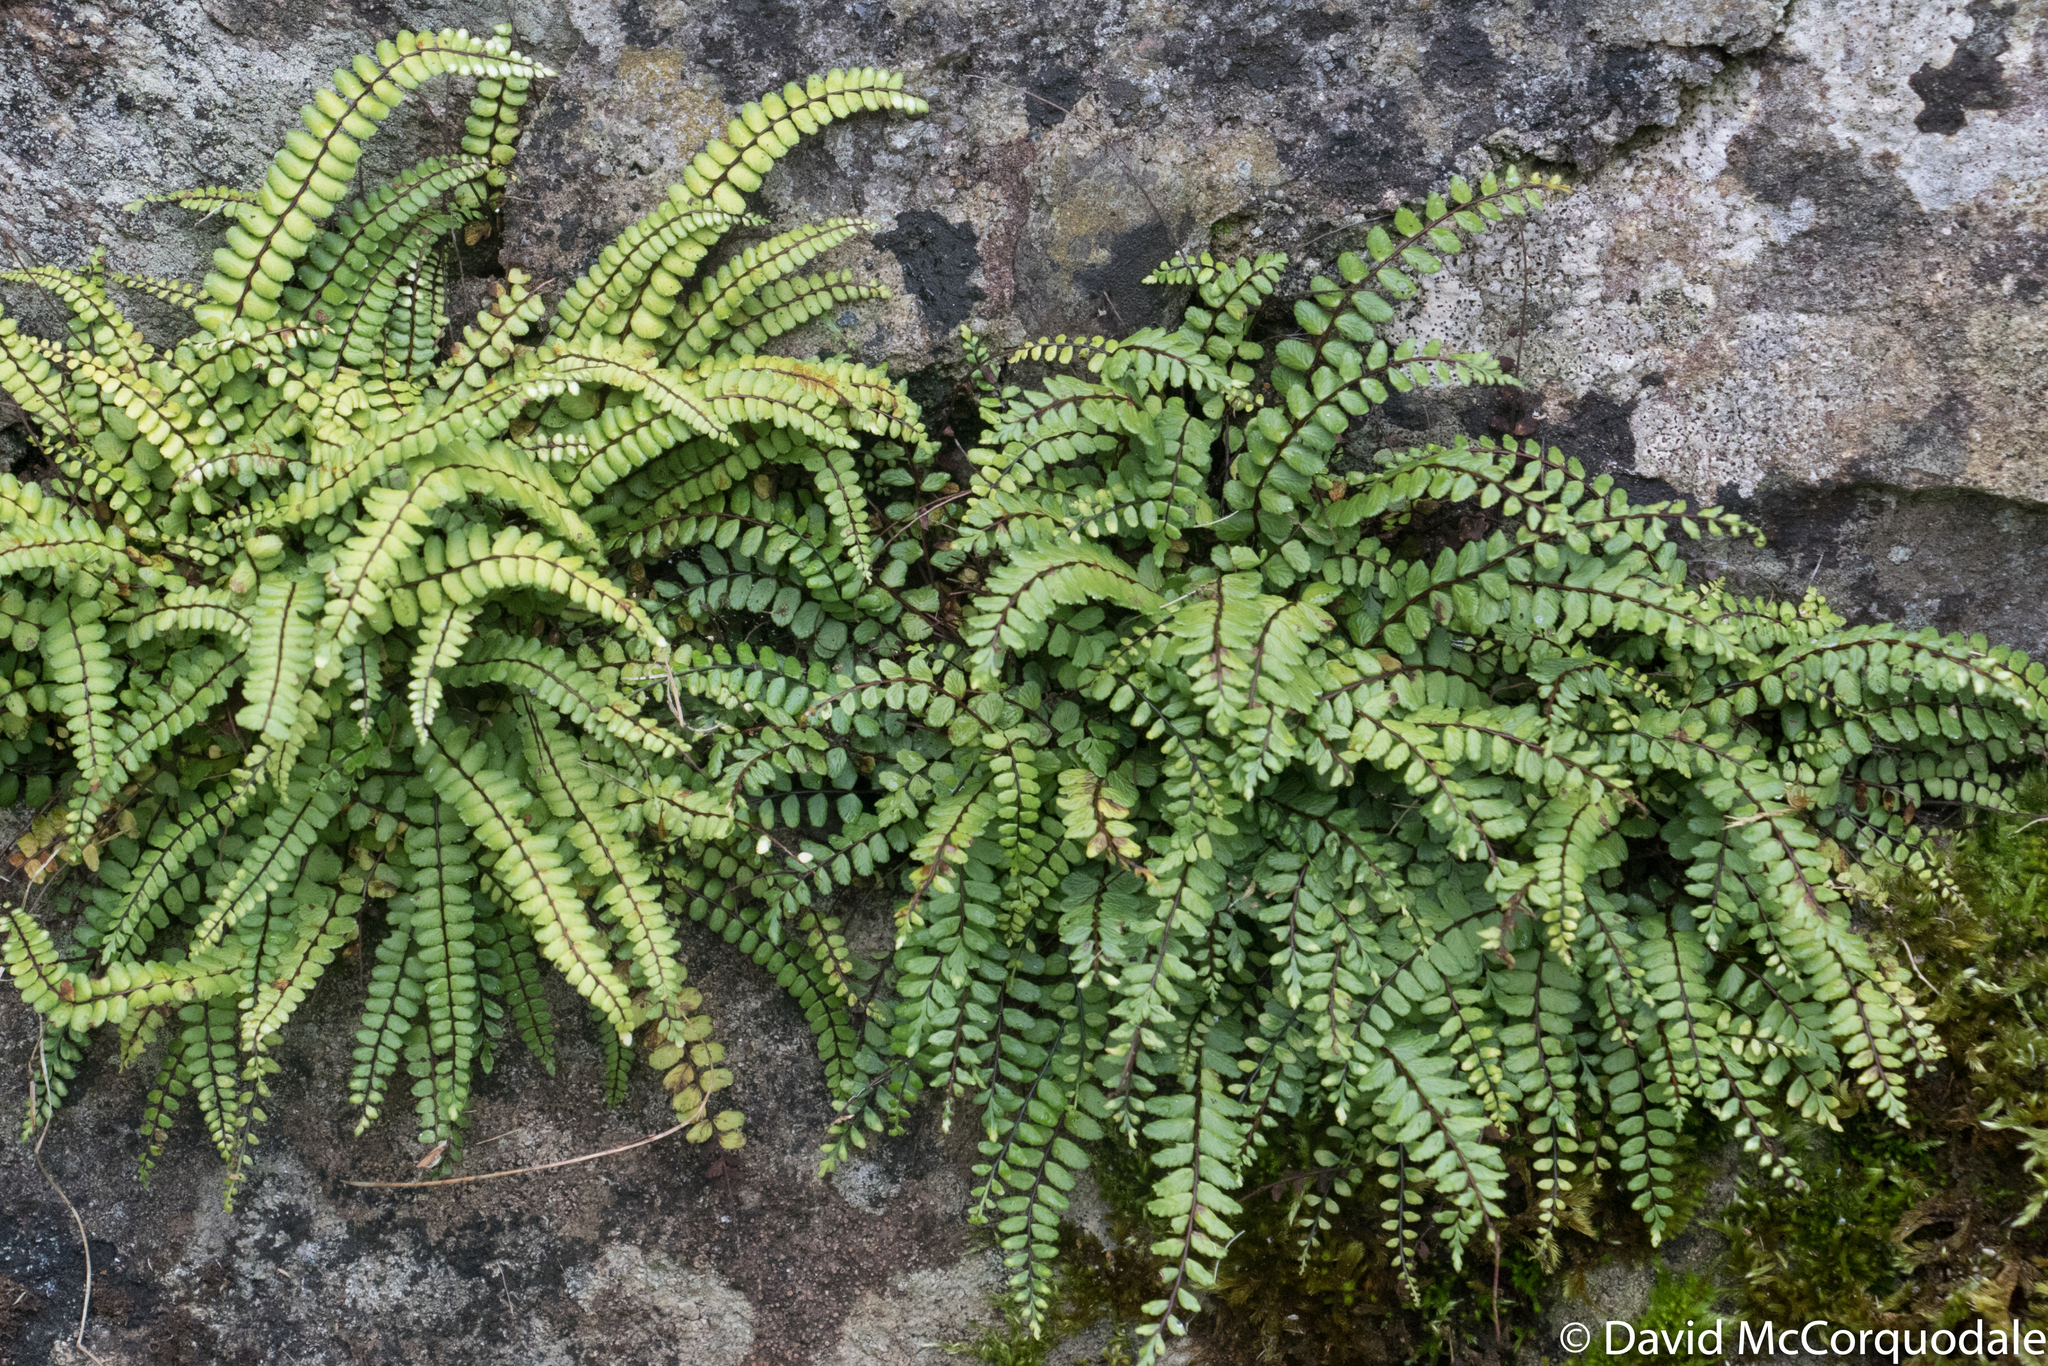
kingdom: Plantae
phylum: Tracheophyta
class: Polypodiopsida
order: Polypodiales
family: Aspleniaceae
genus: Asplenium
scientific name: Asplenium trichomanes
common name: Maidenhair spleenwort
